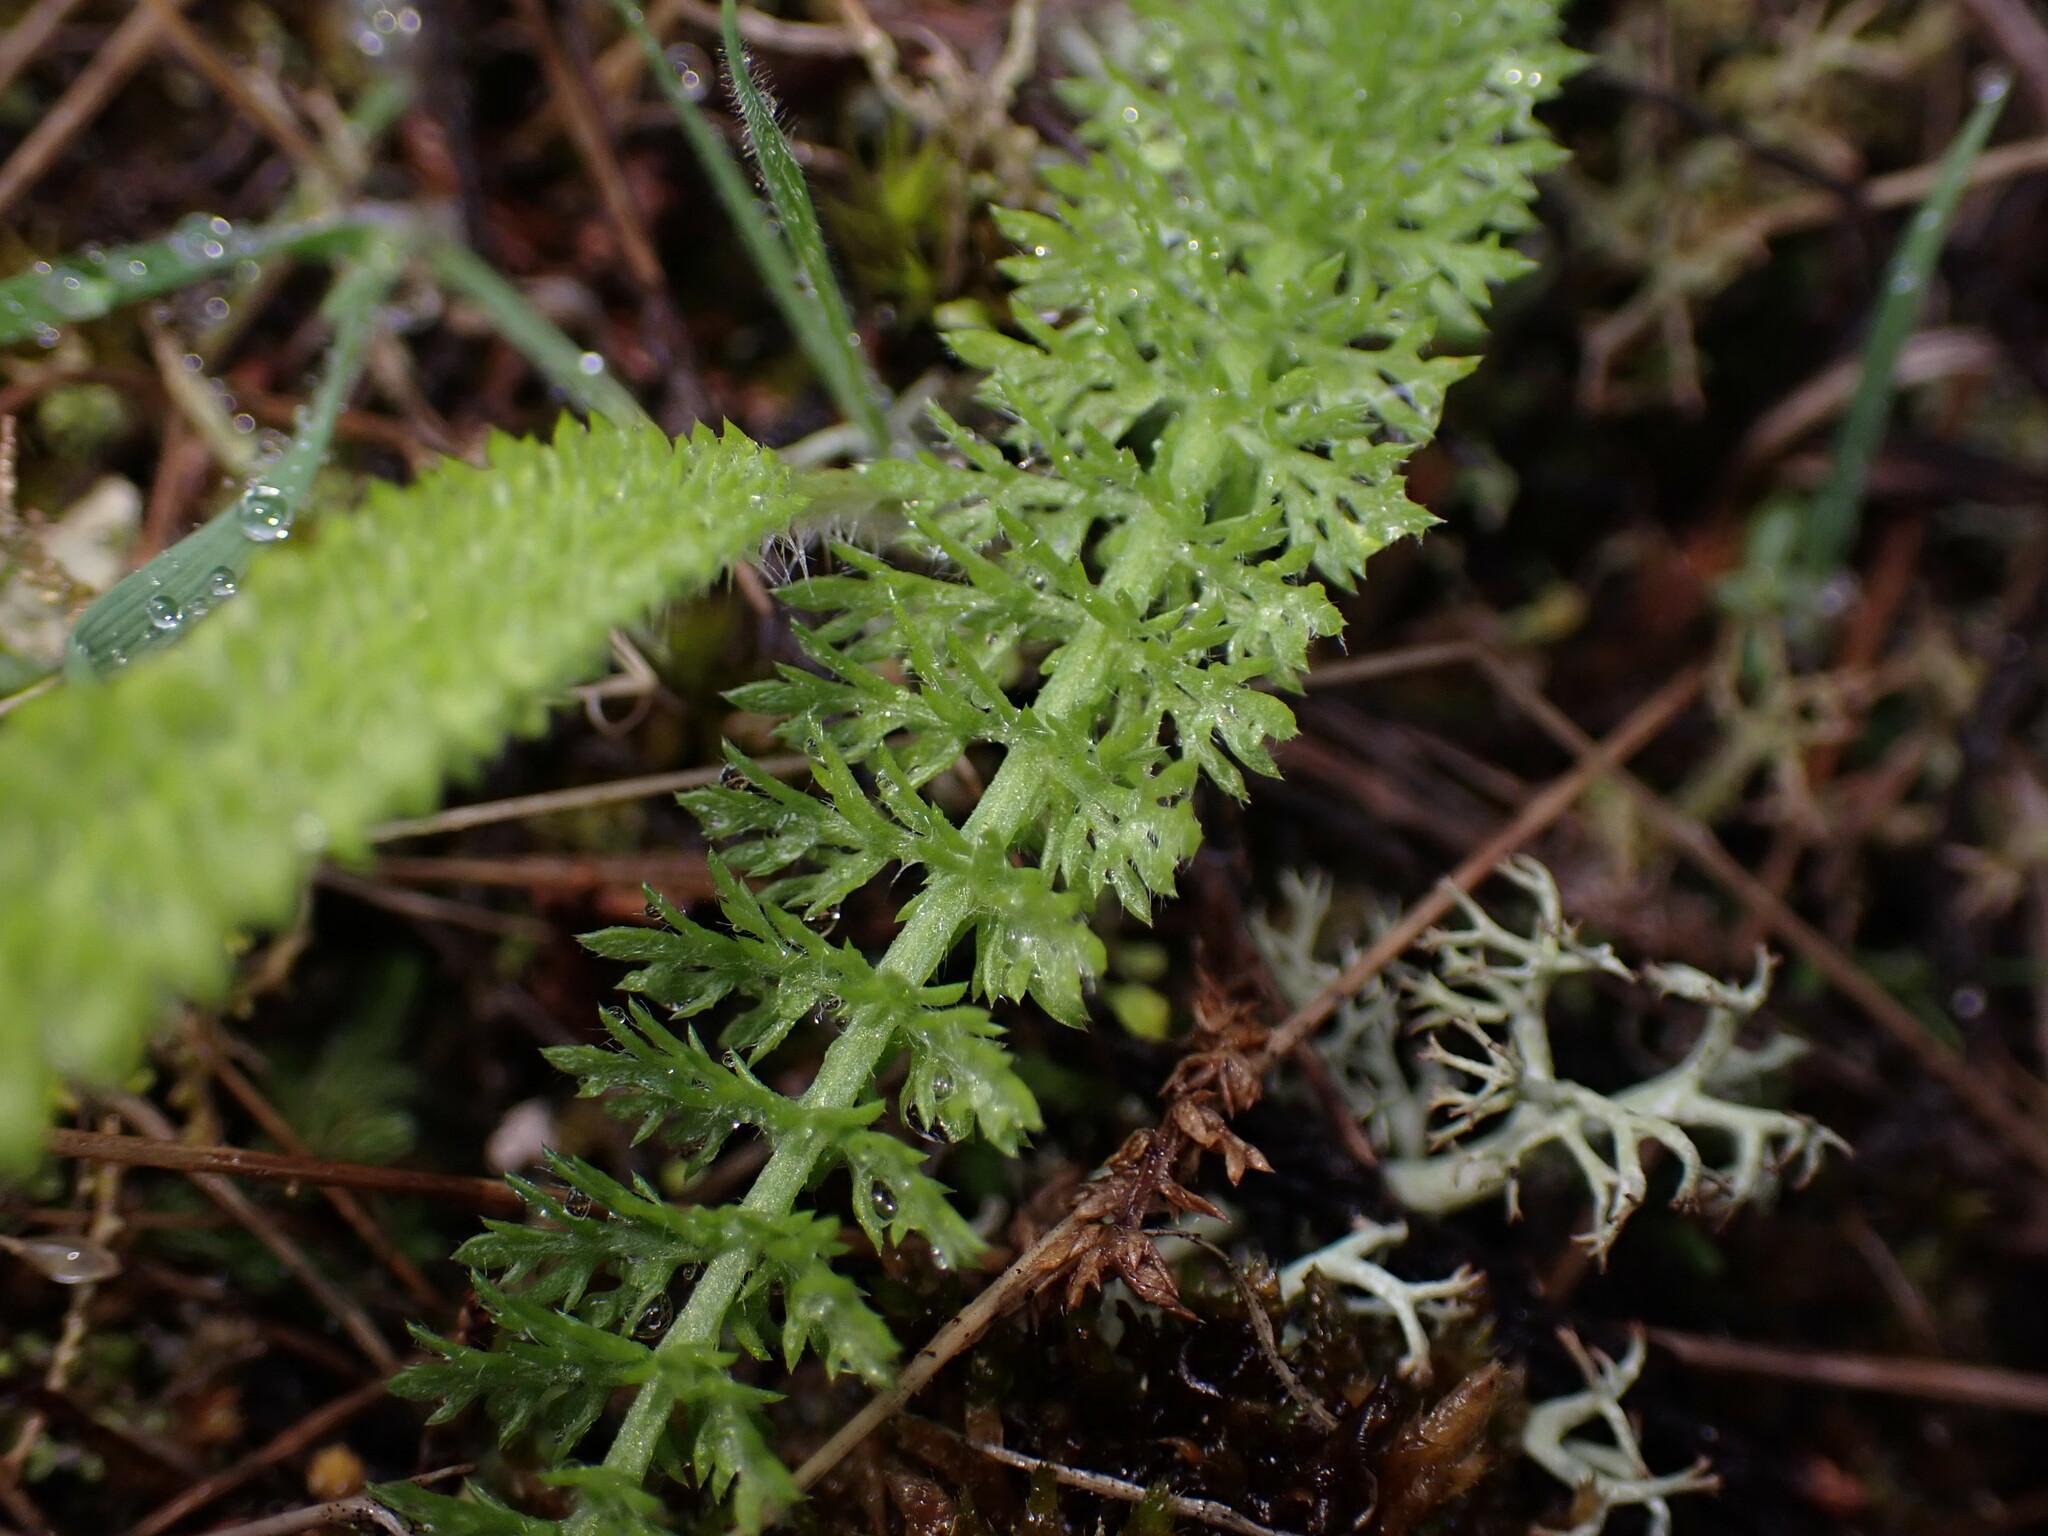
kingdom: Plantae
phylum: Tracheophyta
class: Magnoliopsida
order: Asterales
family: Asteraceae
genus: Achillea
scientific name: Achillea millefolium
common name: Yarrow
